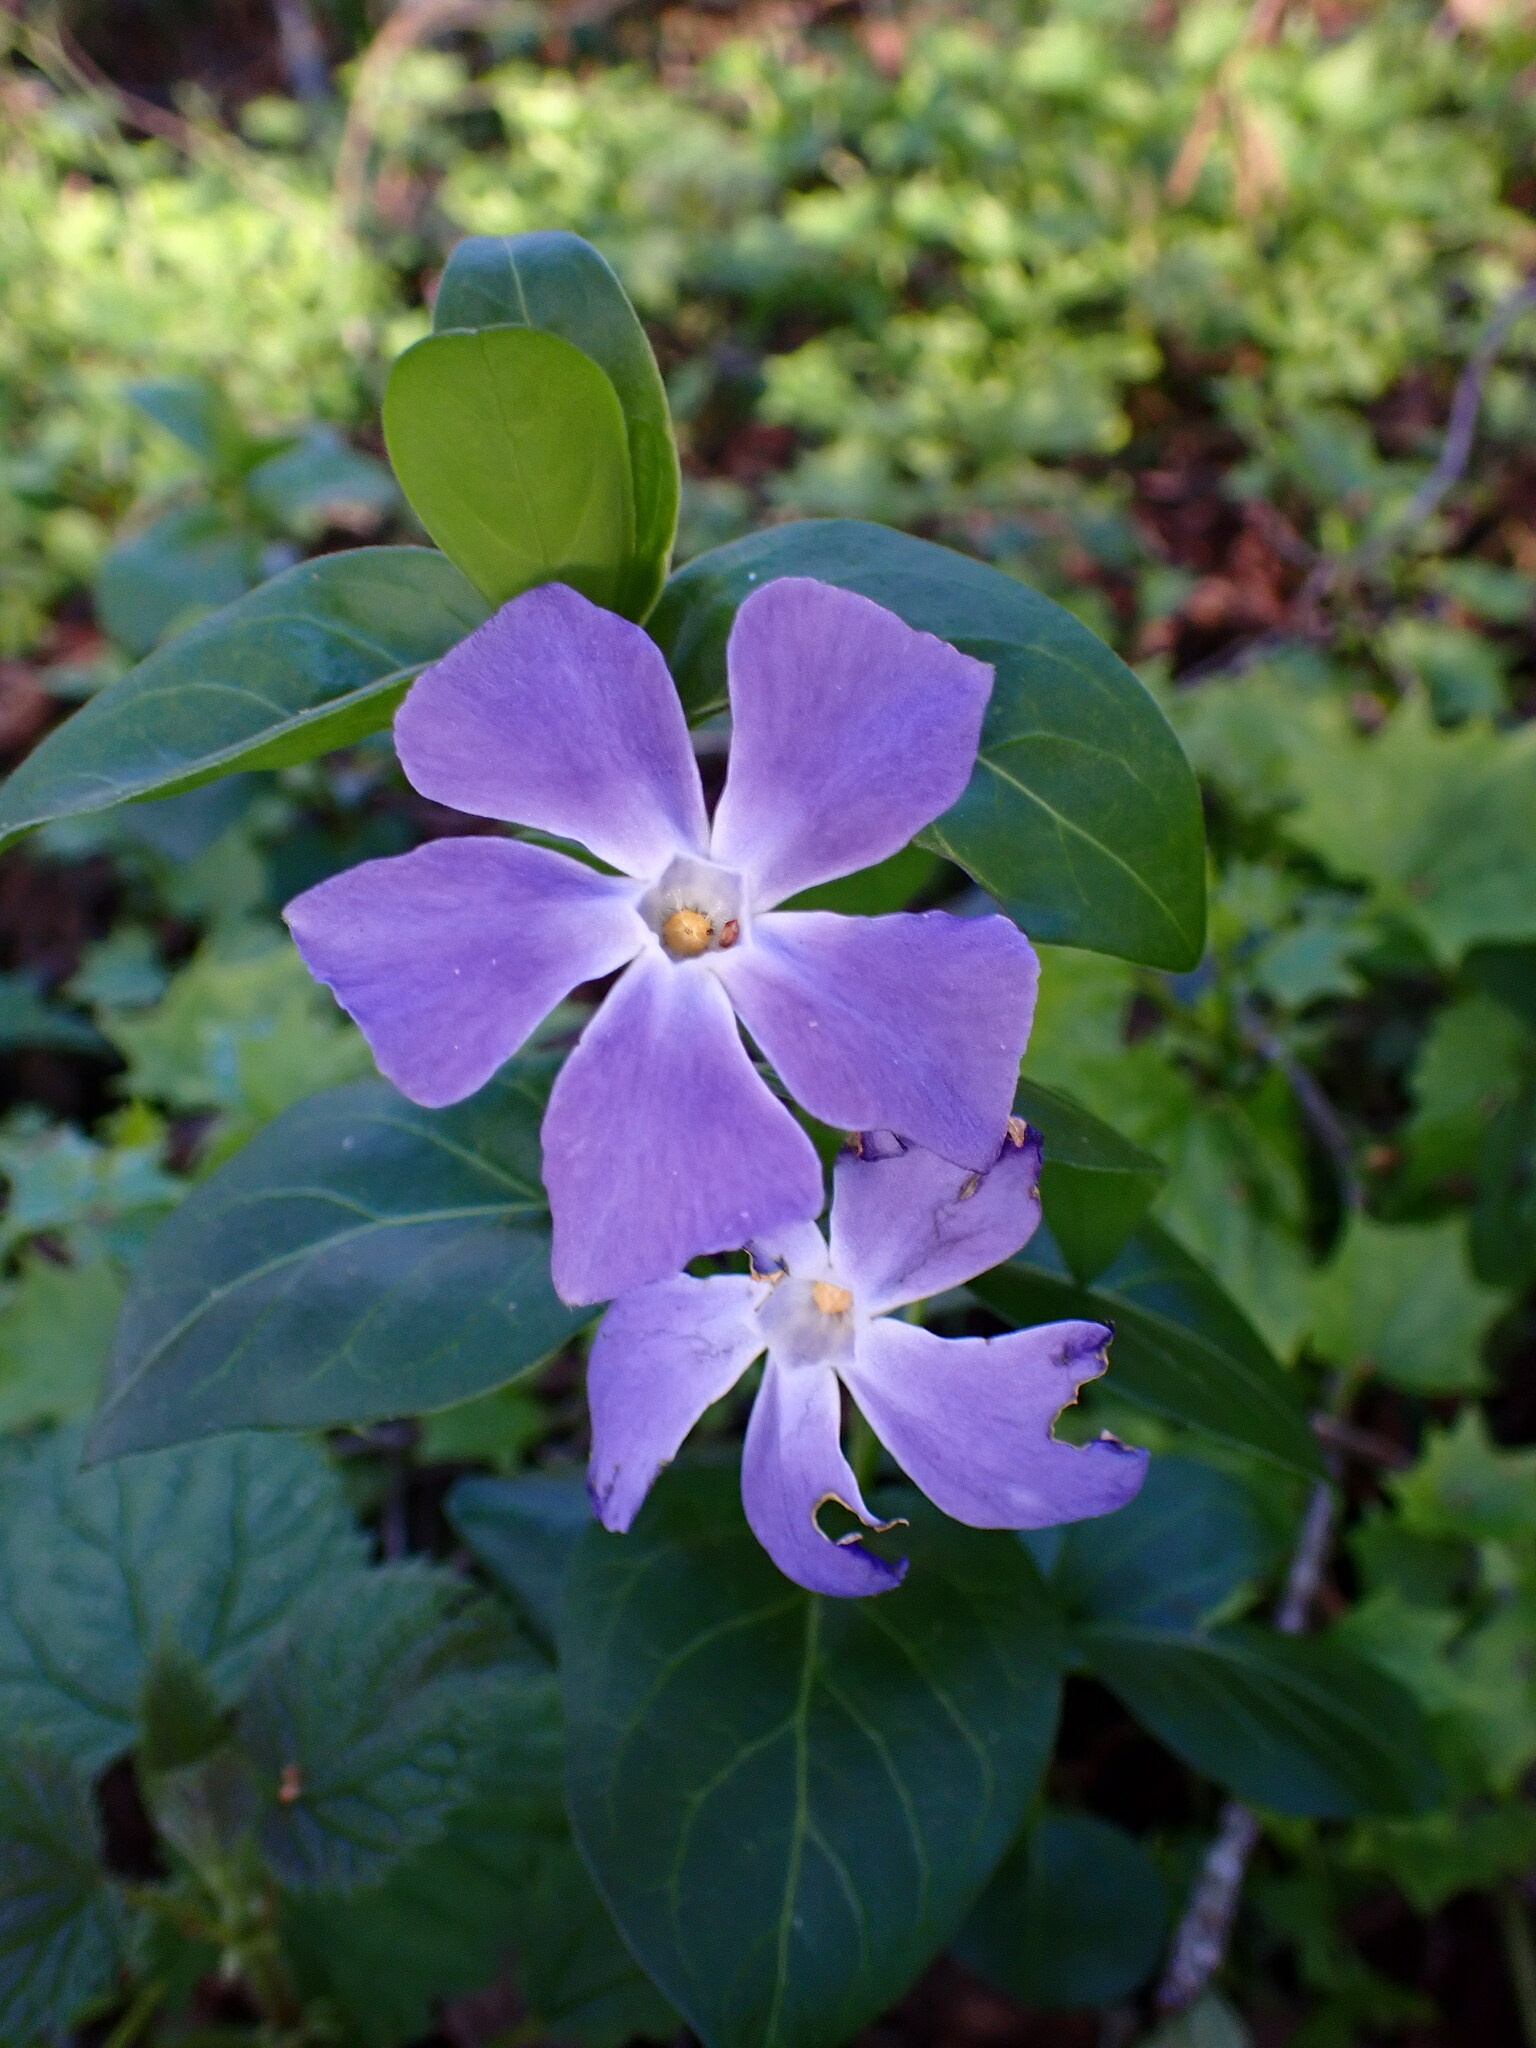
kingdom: Plantae
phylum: Tracheophyta
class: Magnoliopsida
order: Gentianales
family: Apocynaceae
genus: Vinca
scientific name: Vinca major
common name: Greater periwinkle
